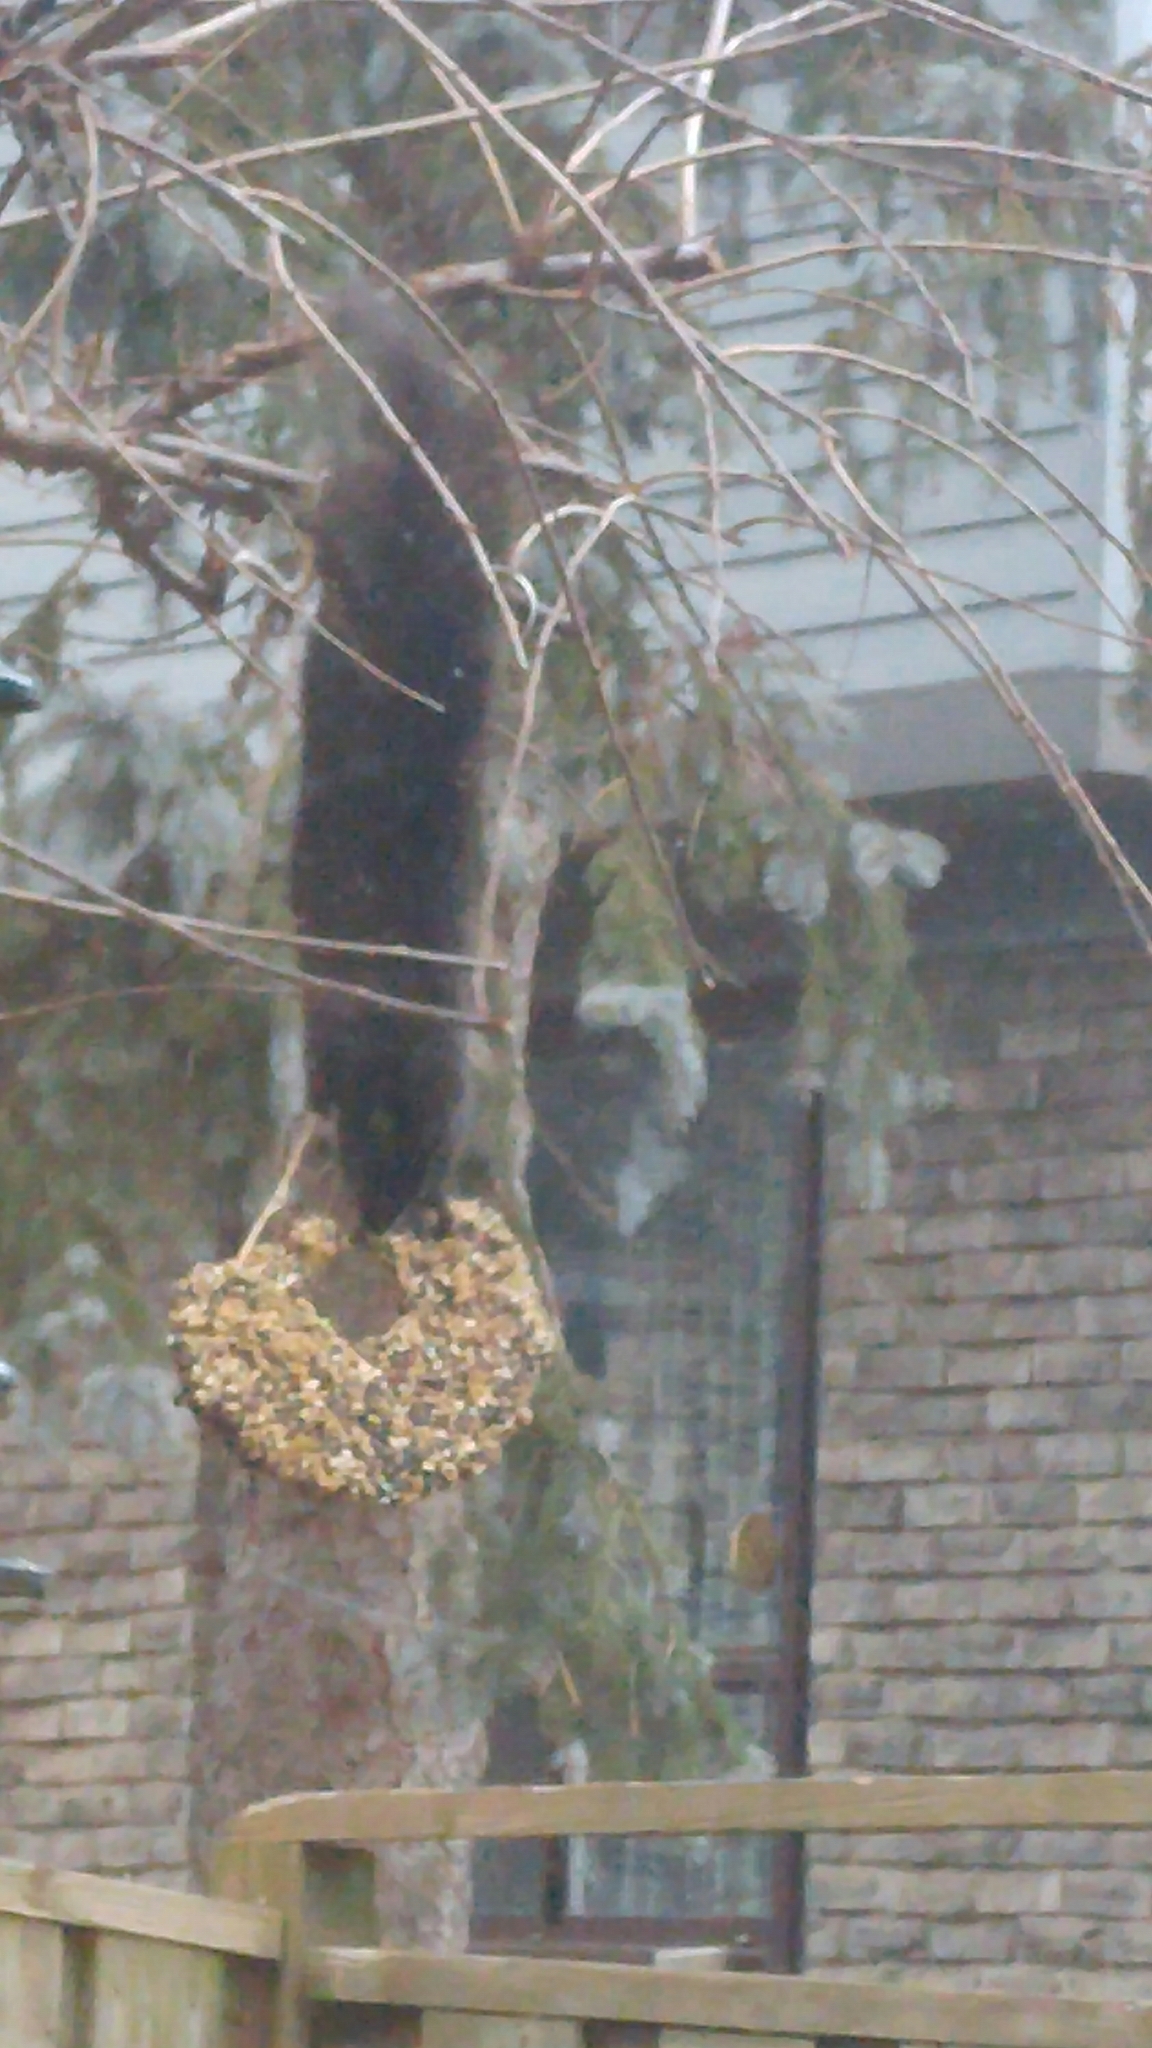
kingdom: Animalia
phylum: Chordata
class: Mammalia
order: Rodentia
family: Sciuridae
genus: Sciurus
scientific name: Sciurus carolinensis
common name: Eastern gray squirrel
